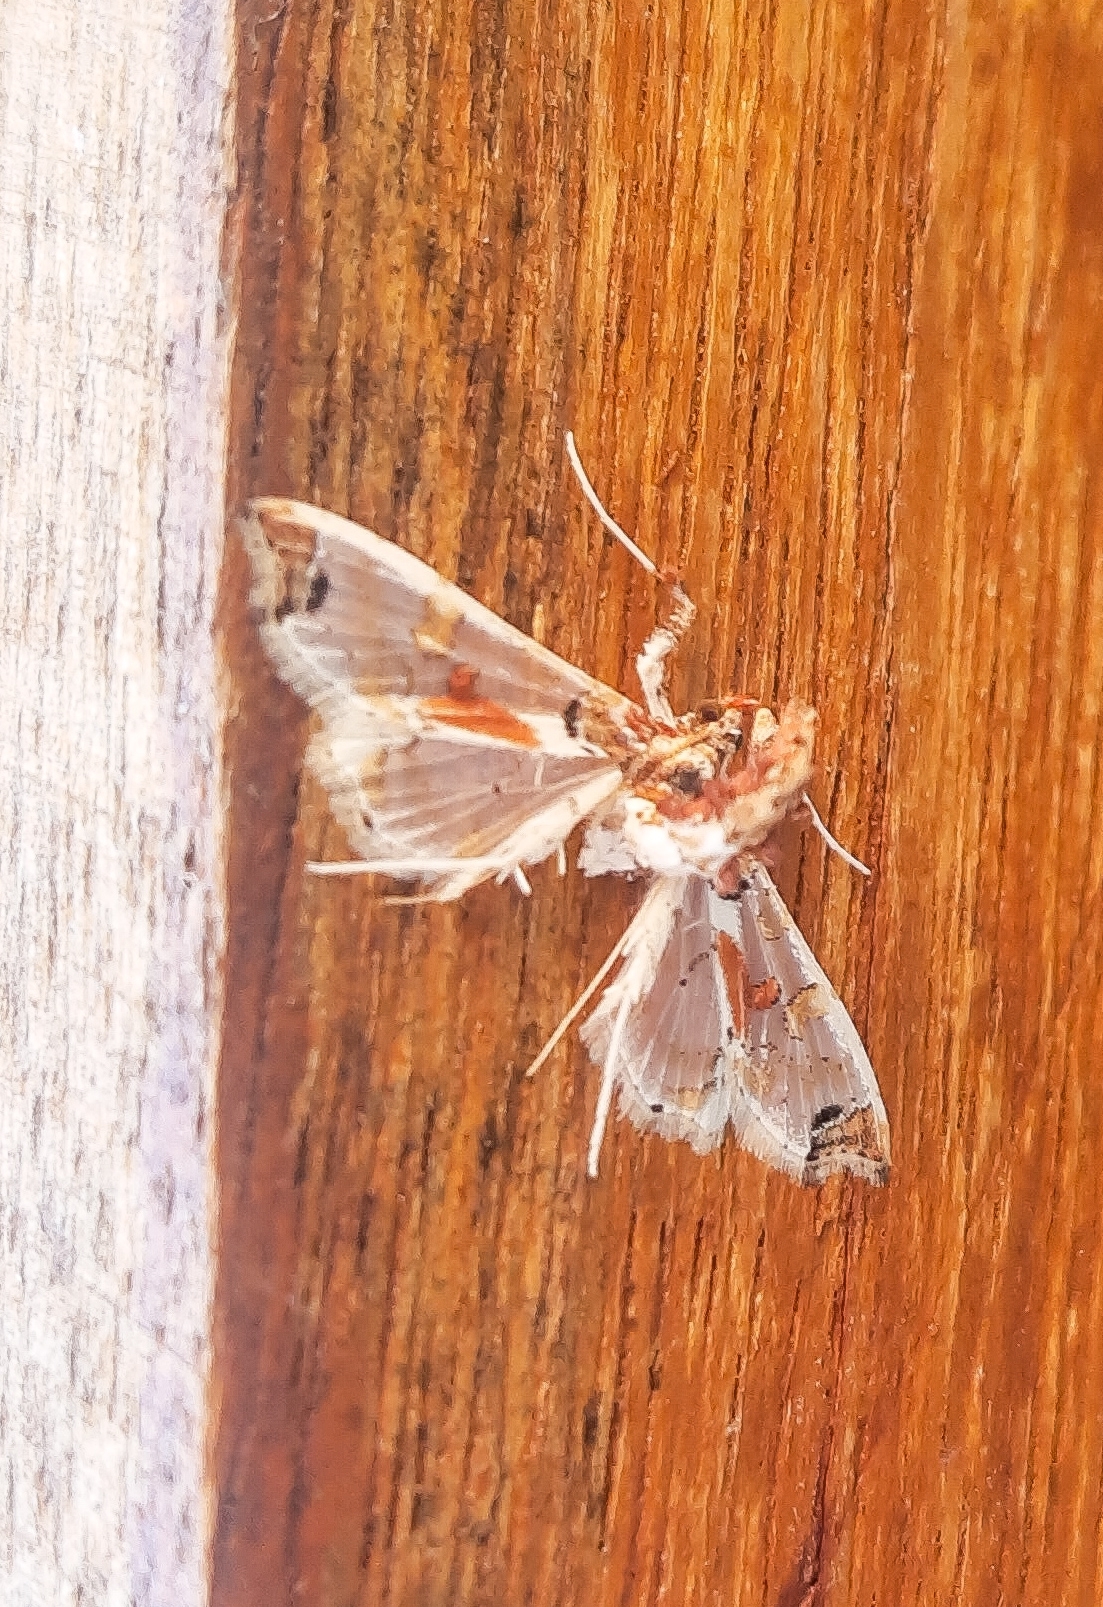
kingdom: Animalia
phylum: Arthropoda
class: Insecta
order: Lepidoptera
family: Crambidae
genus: Neoleucinodes
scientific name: Neoleucinodes elegantalis
